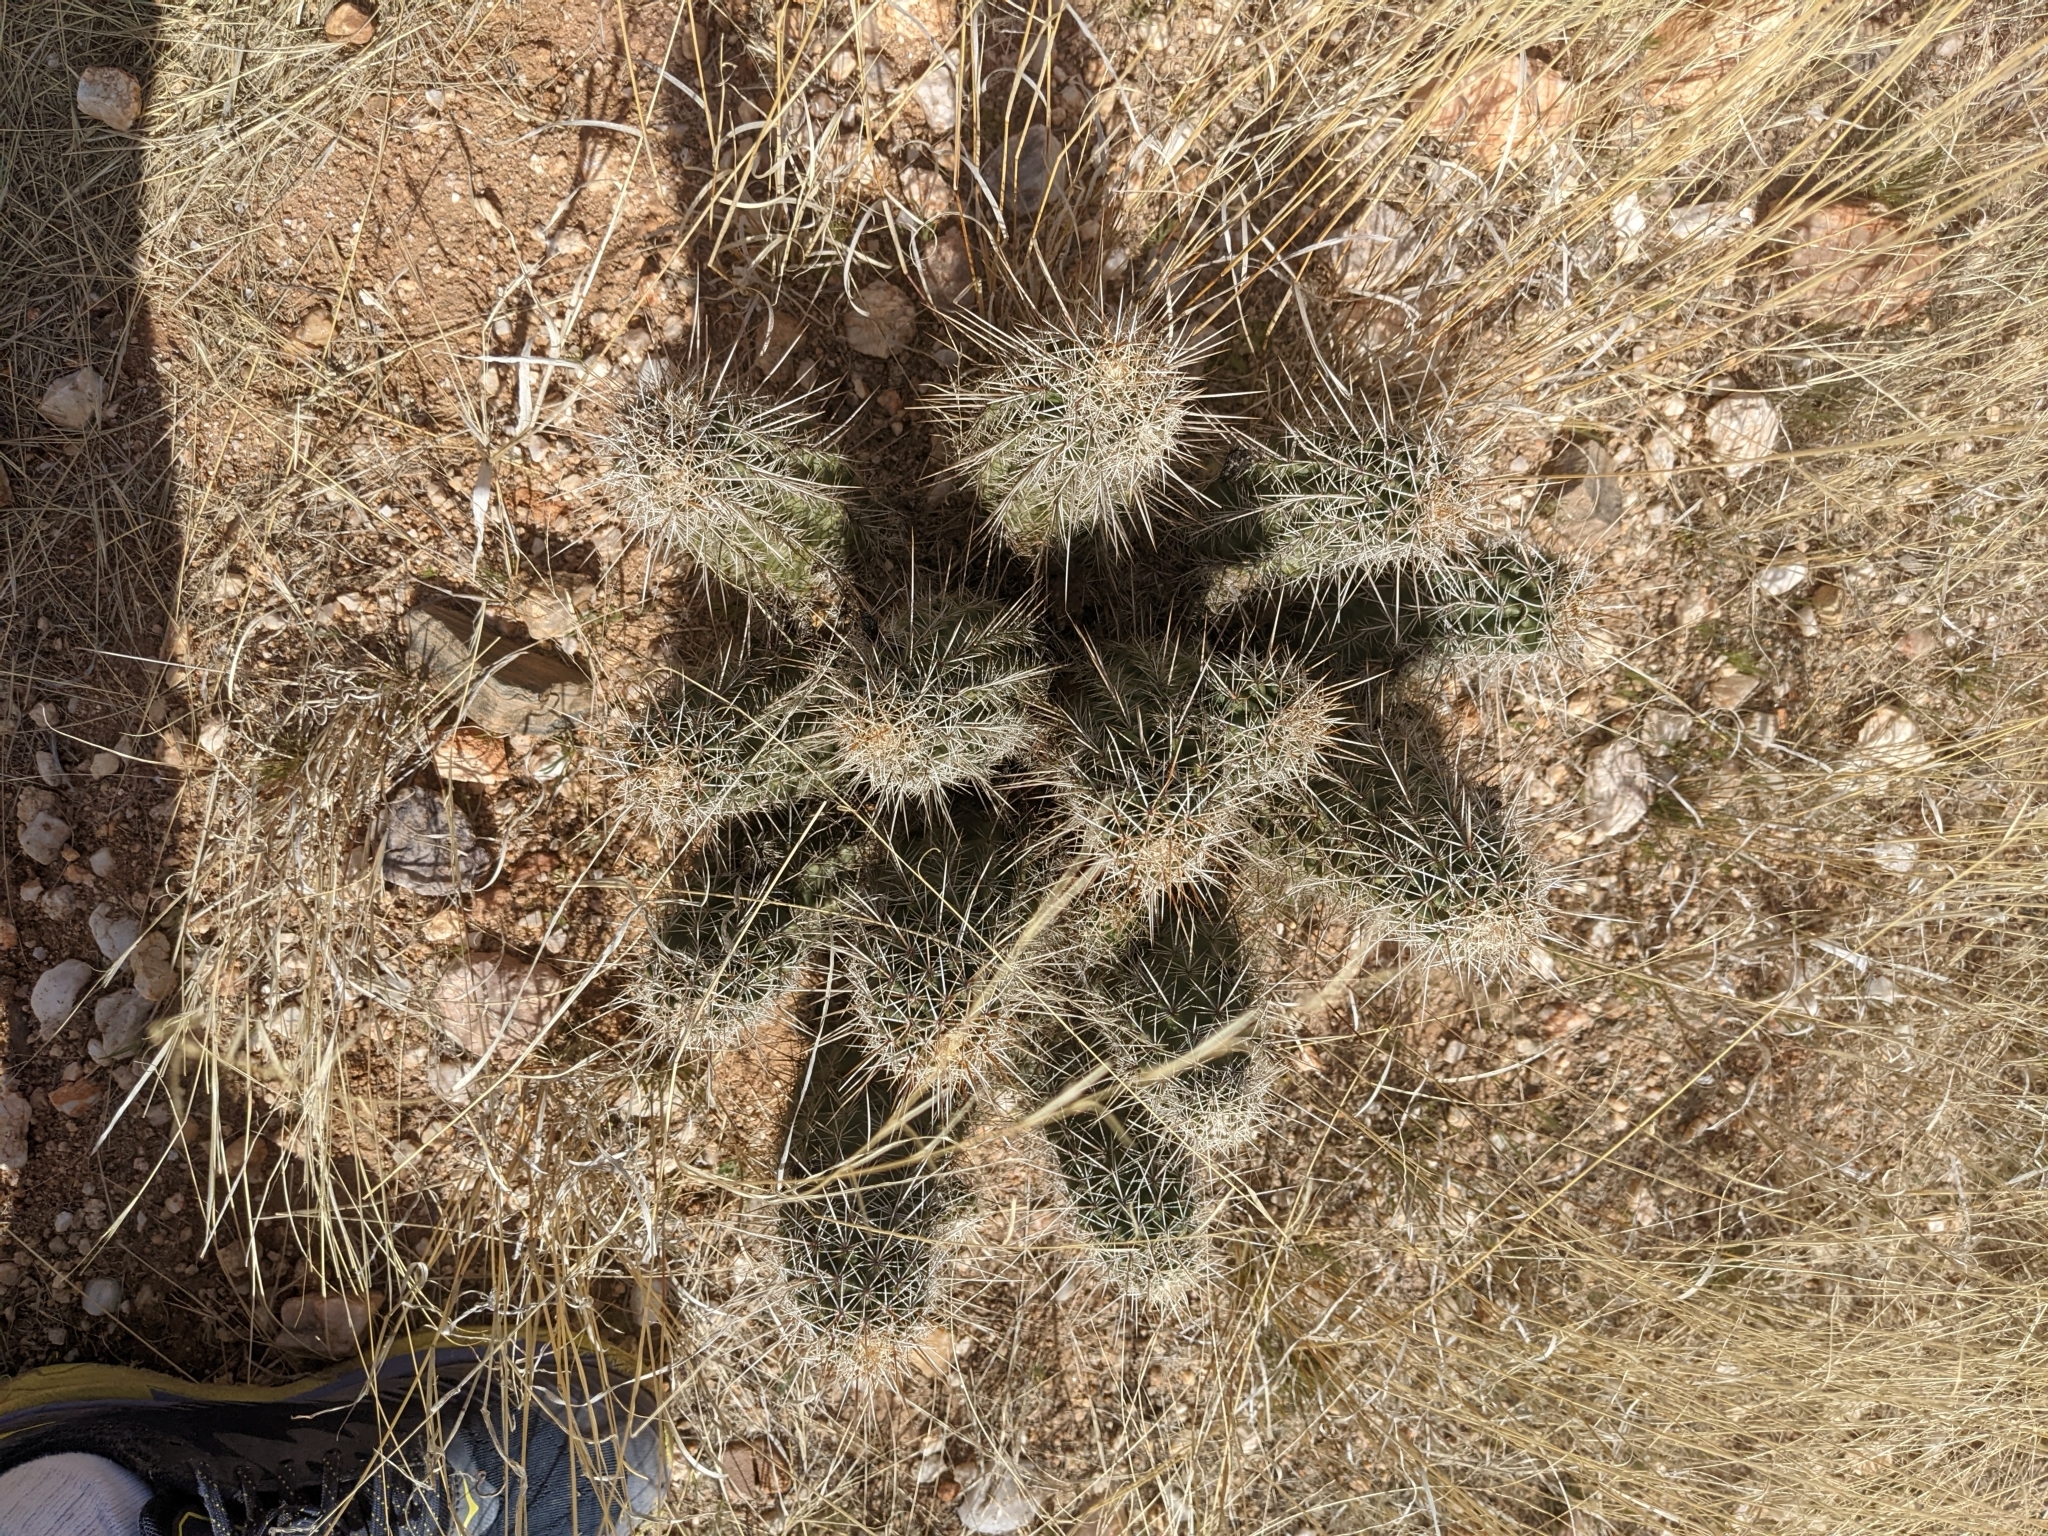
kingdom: Plantae
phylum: Tracheophyta
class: Magnoliopsida
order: Caryophyllales
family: Cactaceae
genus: Echinocereus
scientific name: Echinocereus fasciculatus
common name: Bundle hedgehog
